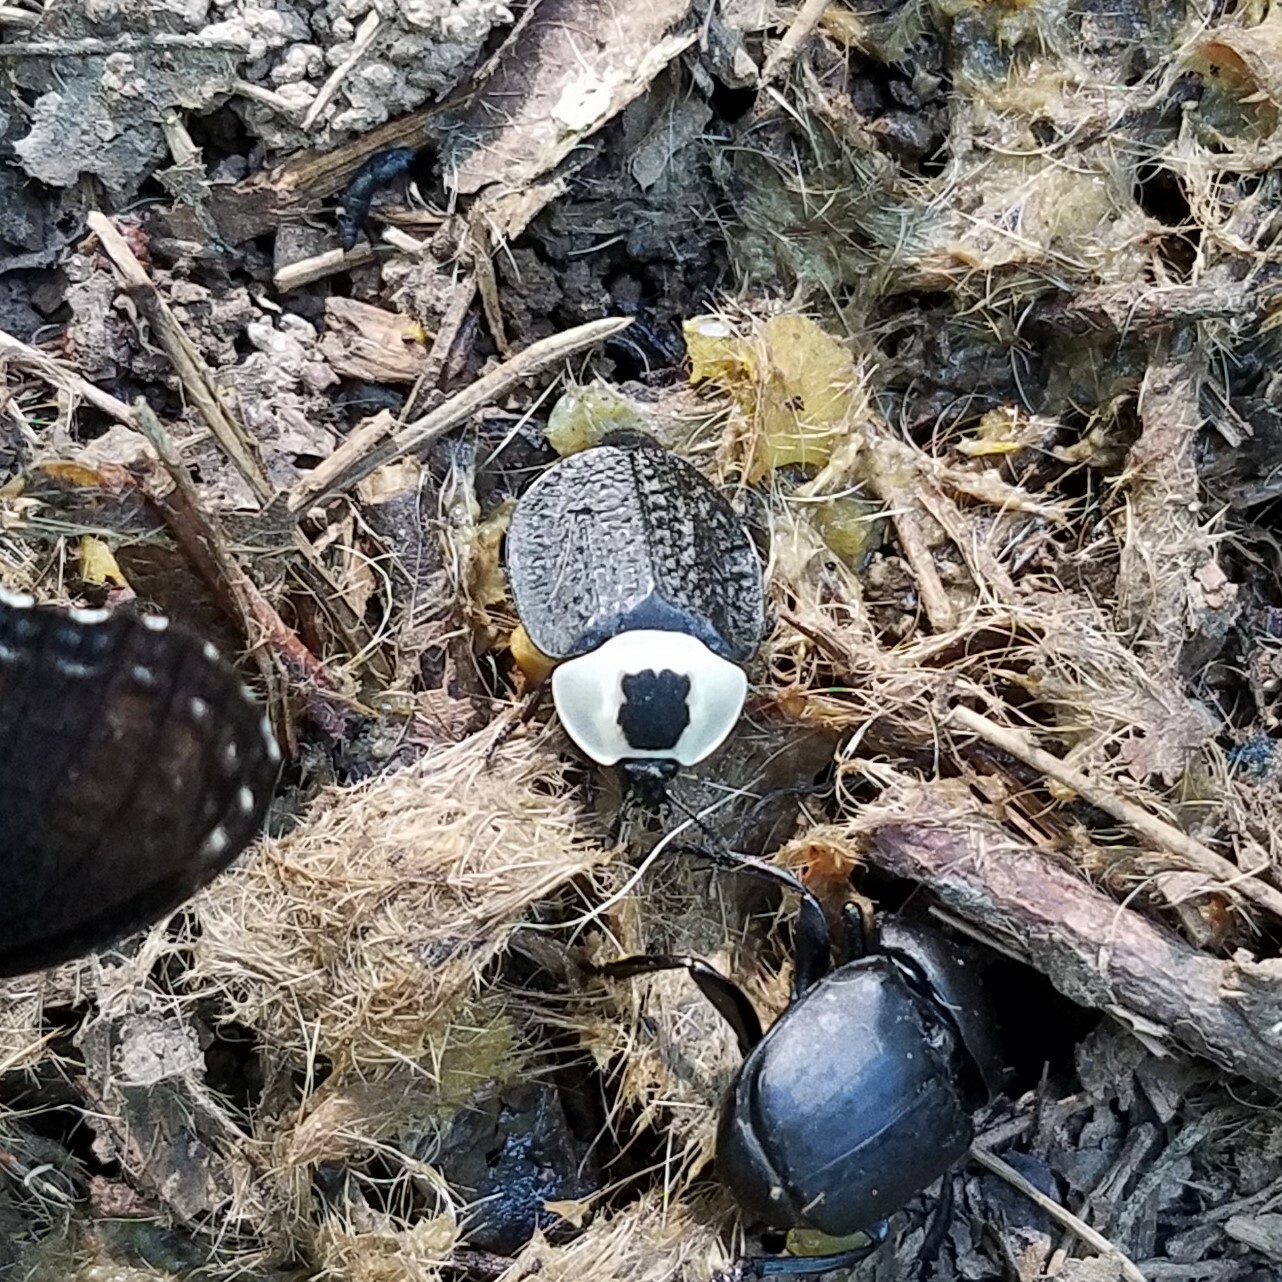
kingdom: Animalia
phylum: Arthropoda
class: Insecta
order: Coleoptera
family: Staphylinidae
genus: Necrophila
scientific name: Necrophila americana
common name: American carrion beetle
